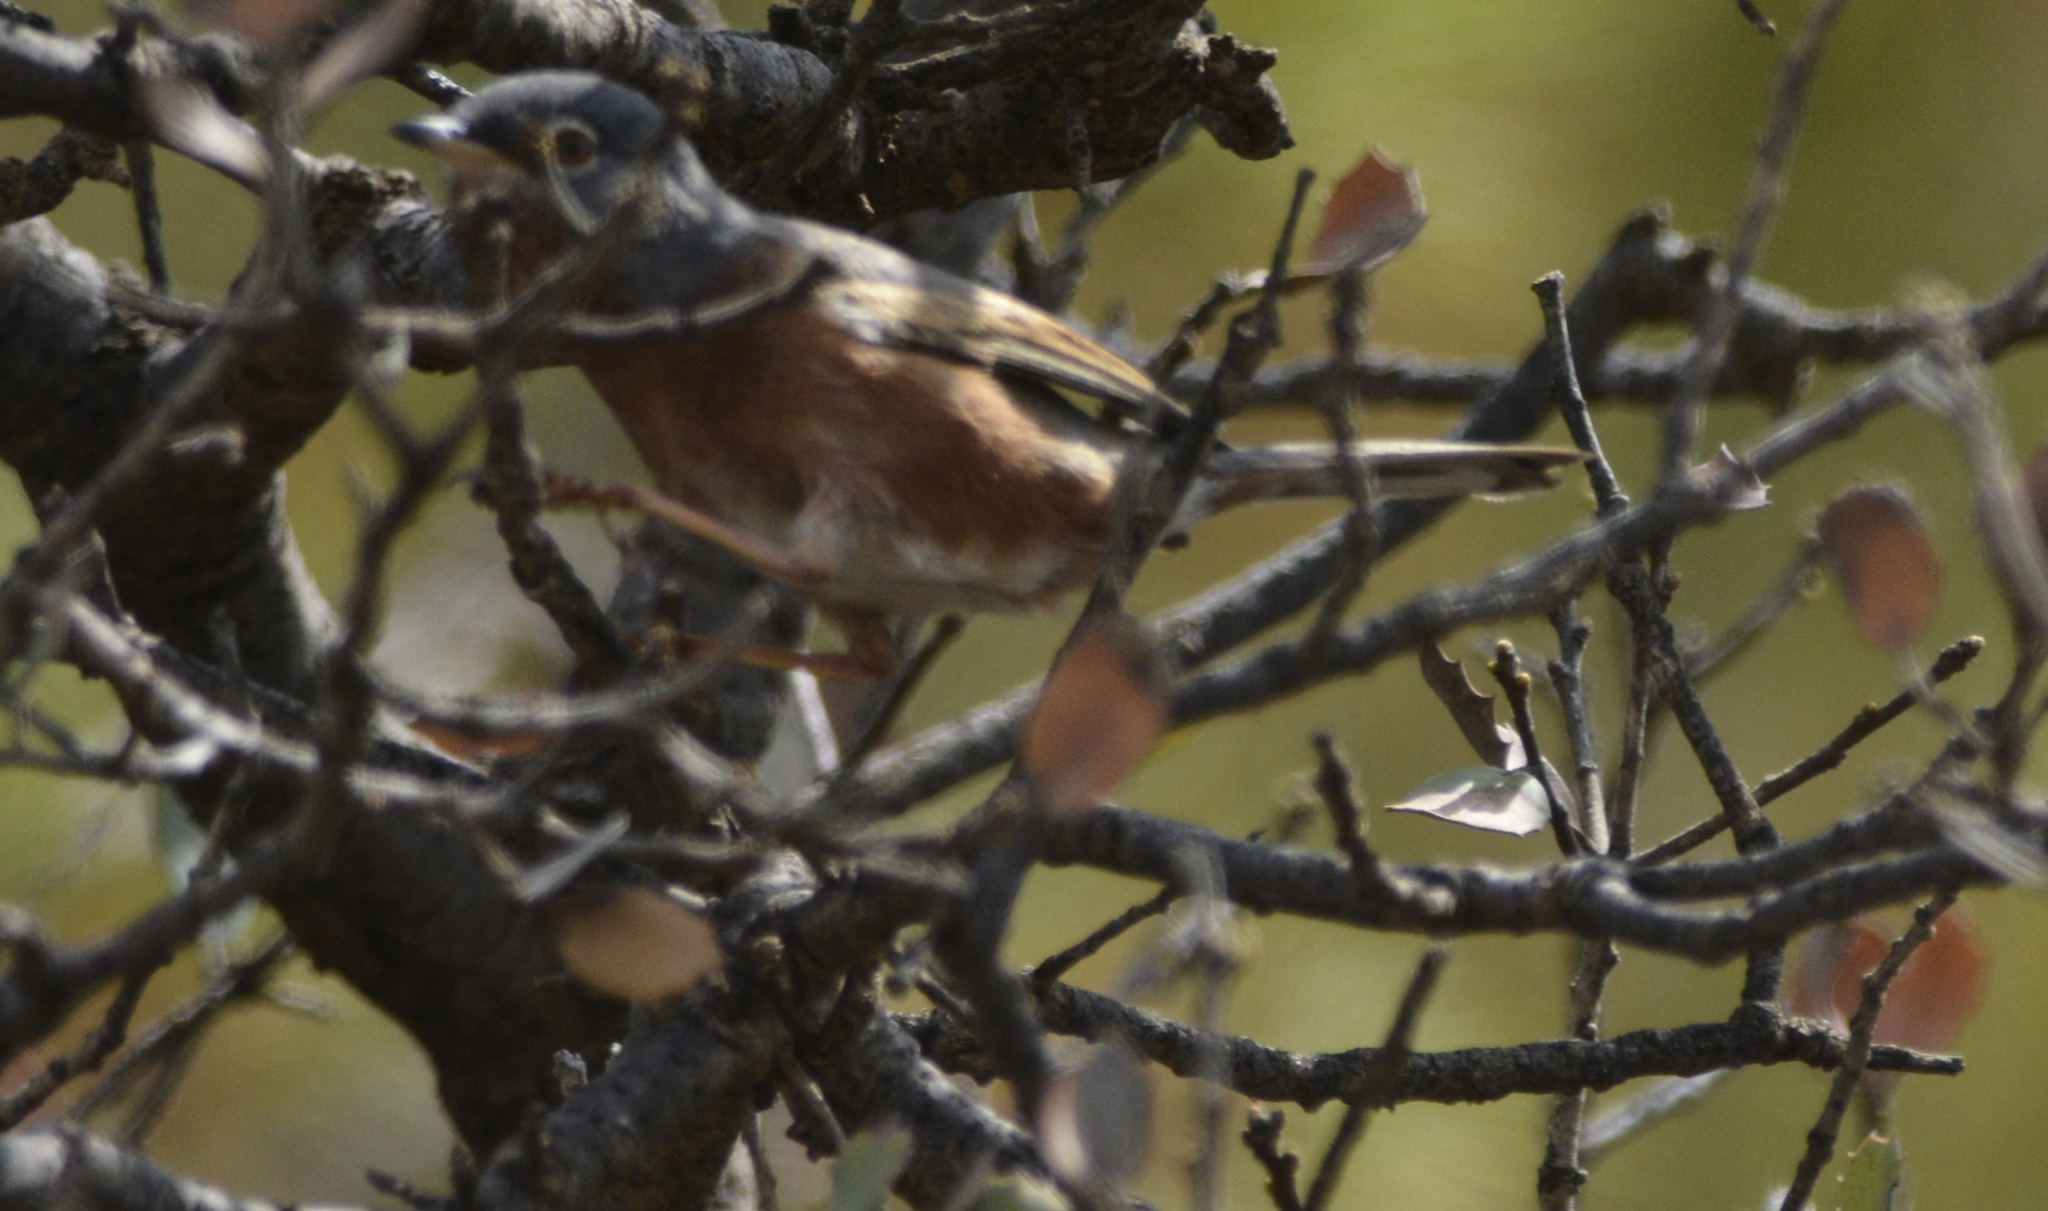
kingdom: Animalia
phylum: Chordata
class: Aves
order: Passeriformes
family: Sylviidae
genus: Sylvia
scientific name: Sylvia deserticola
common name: Tristram's warbler
